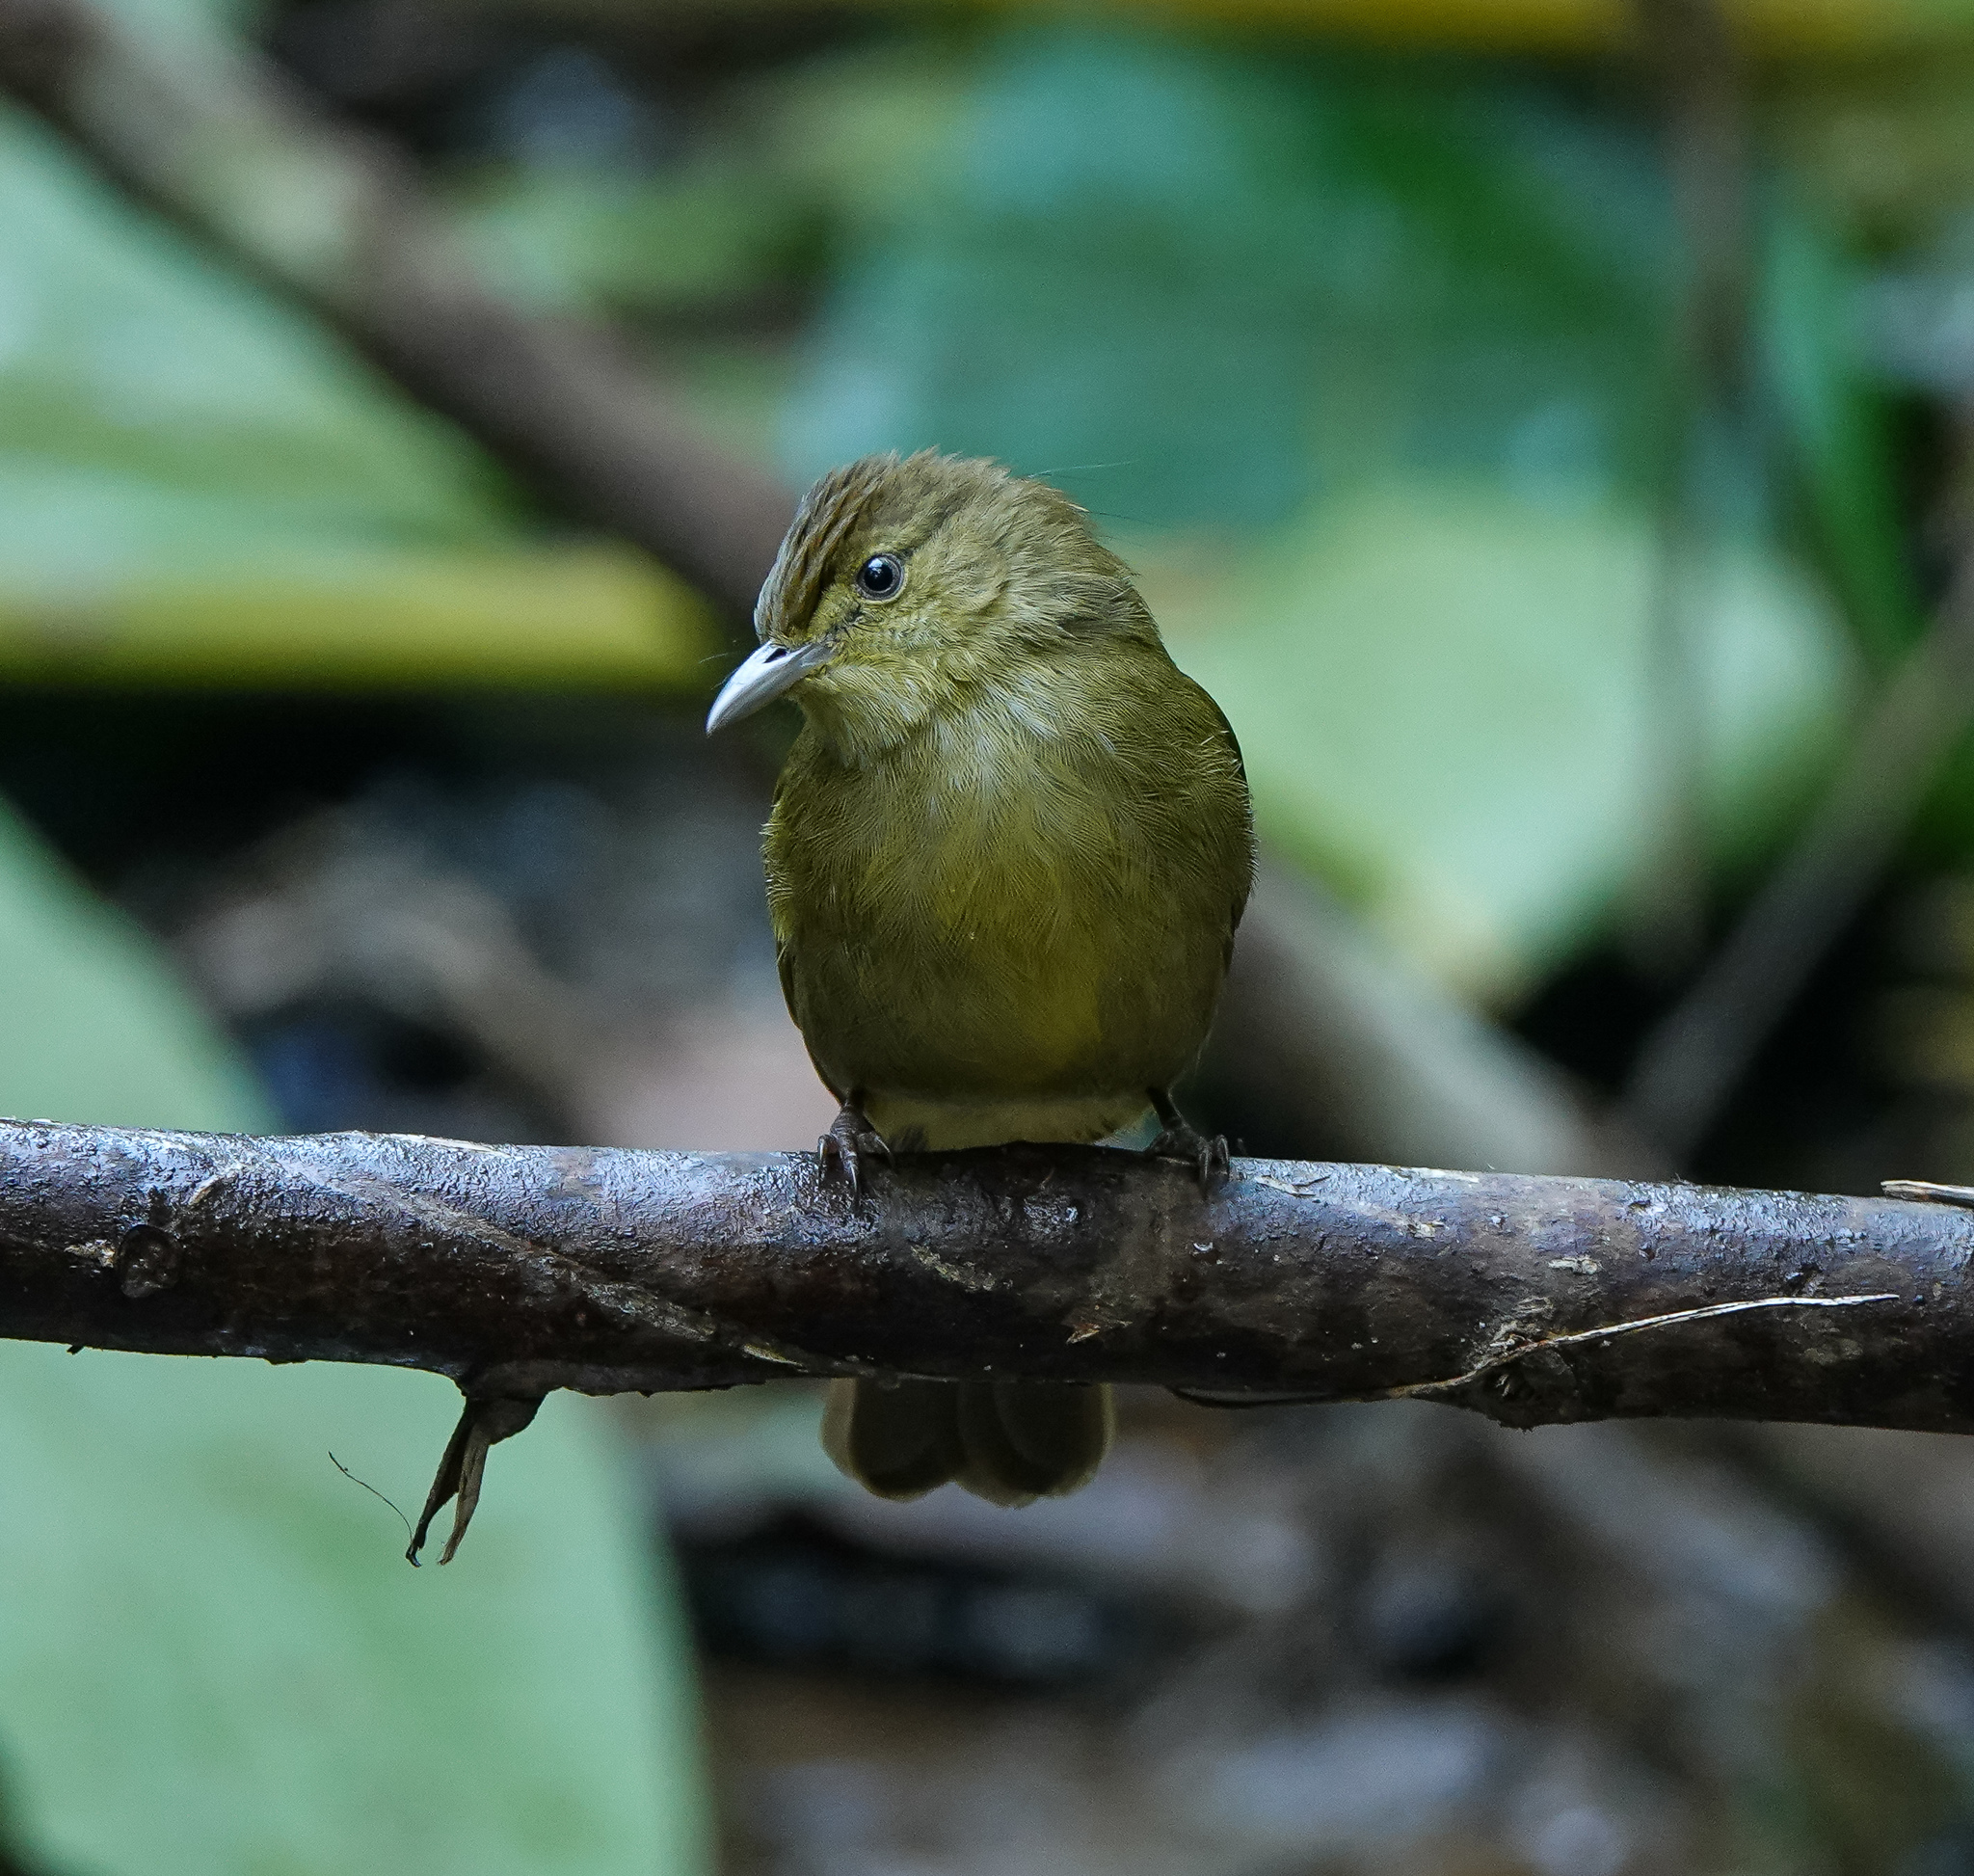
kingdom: Animalia
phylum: Chordata
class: Aves
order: Passeriformes
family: Pycnonotidae
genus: Iole
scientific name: Iole virescens
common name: Olive bulbul
